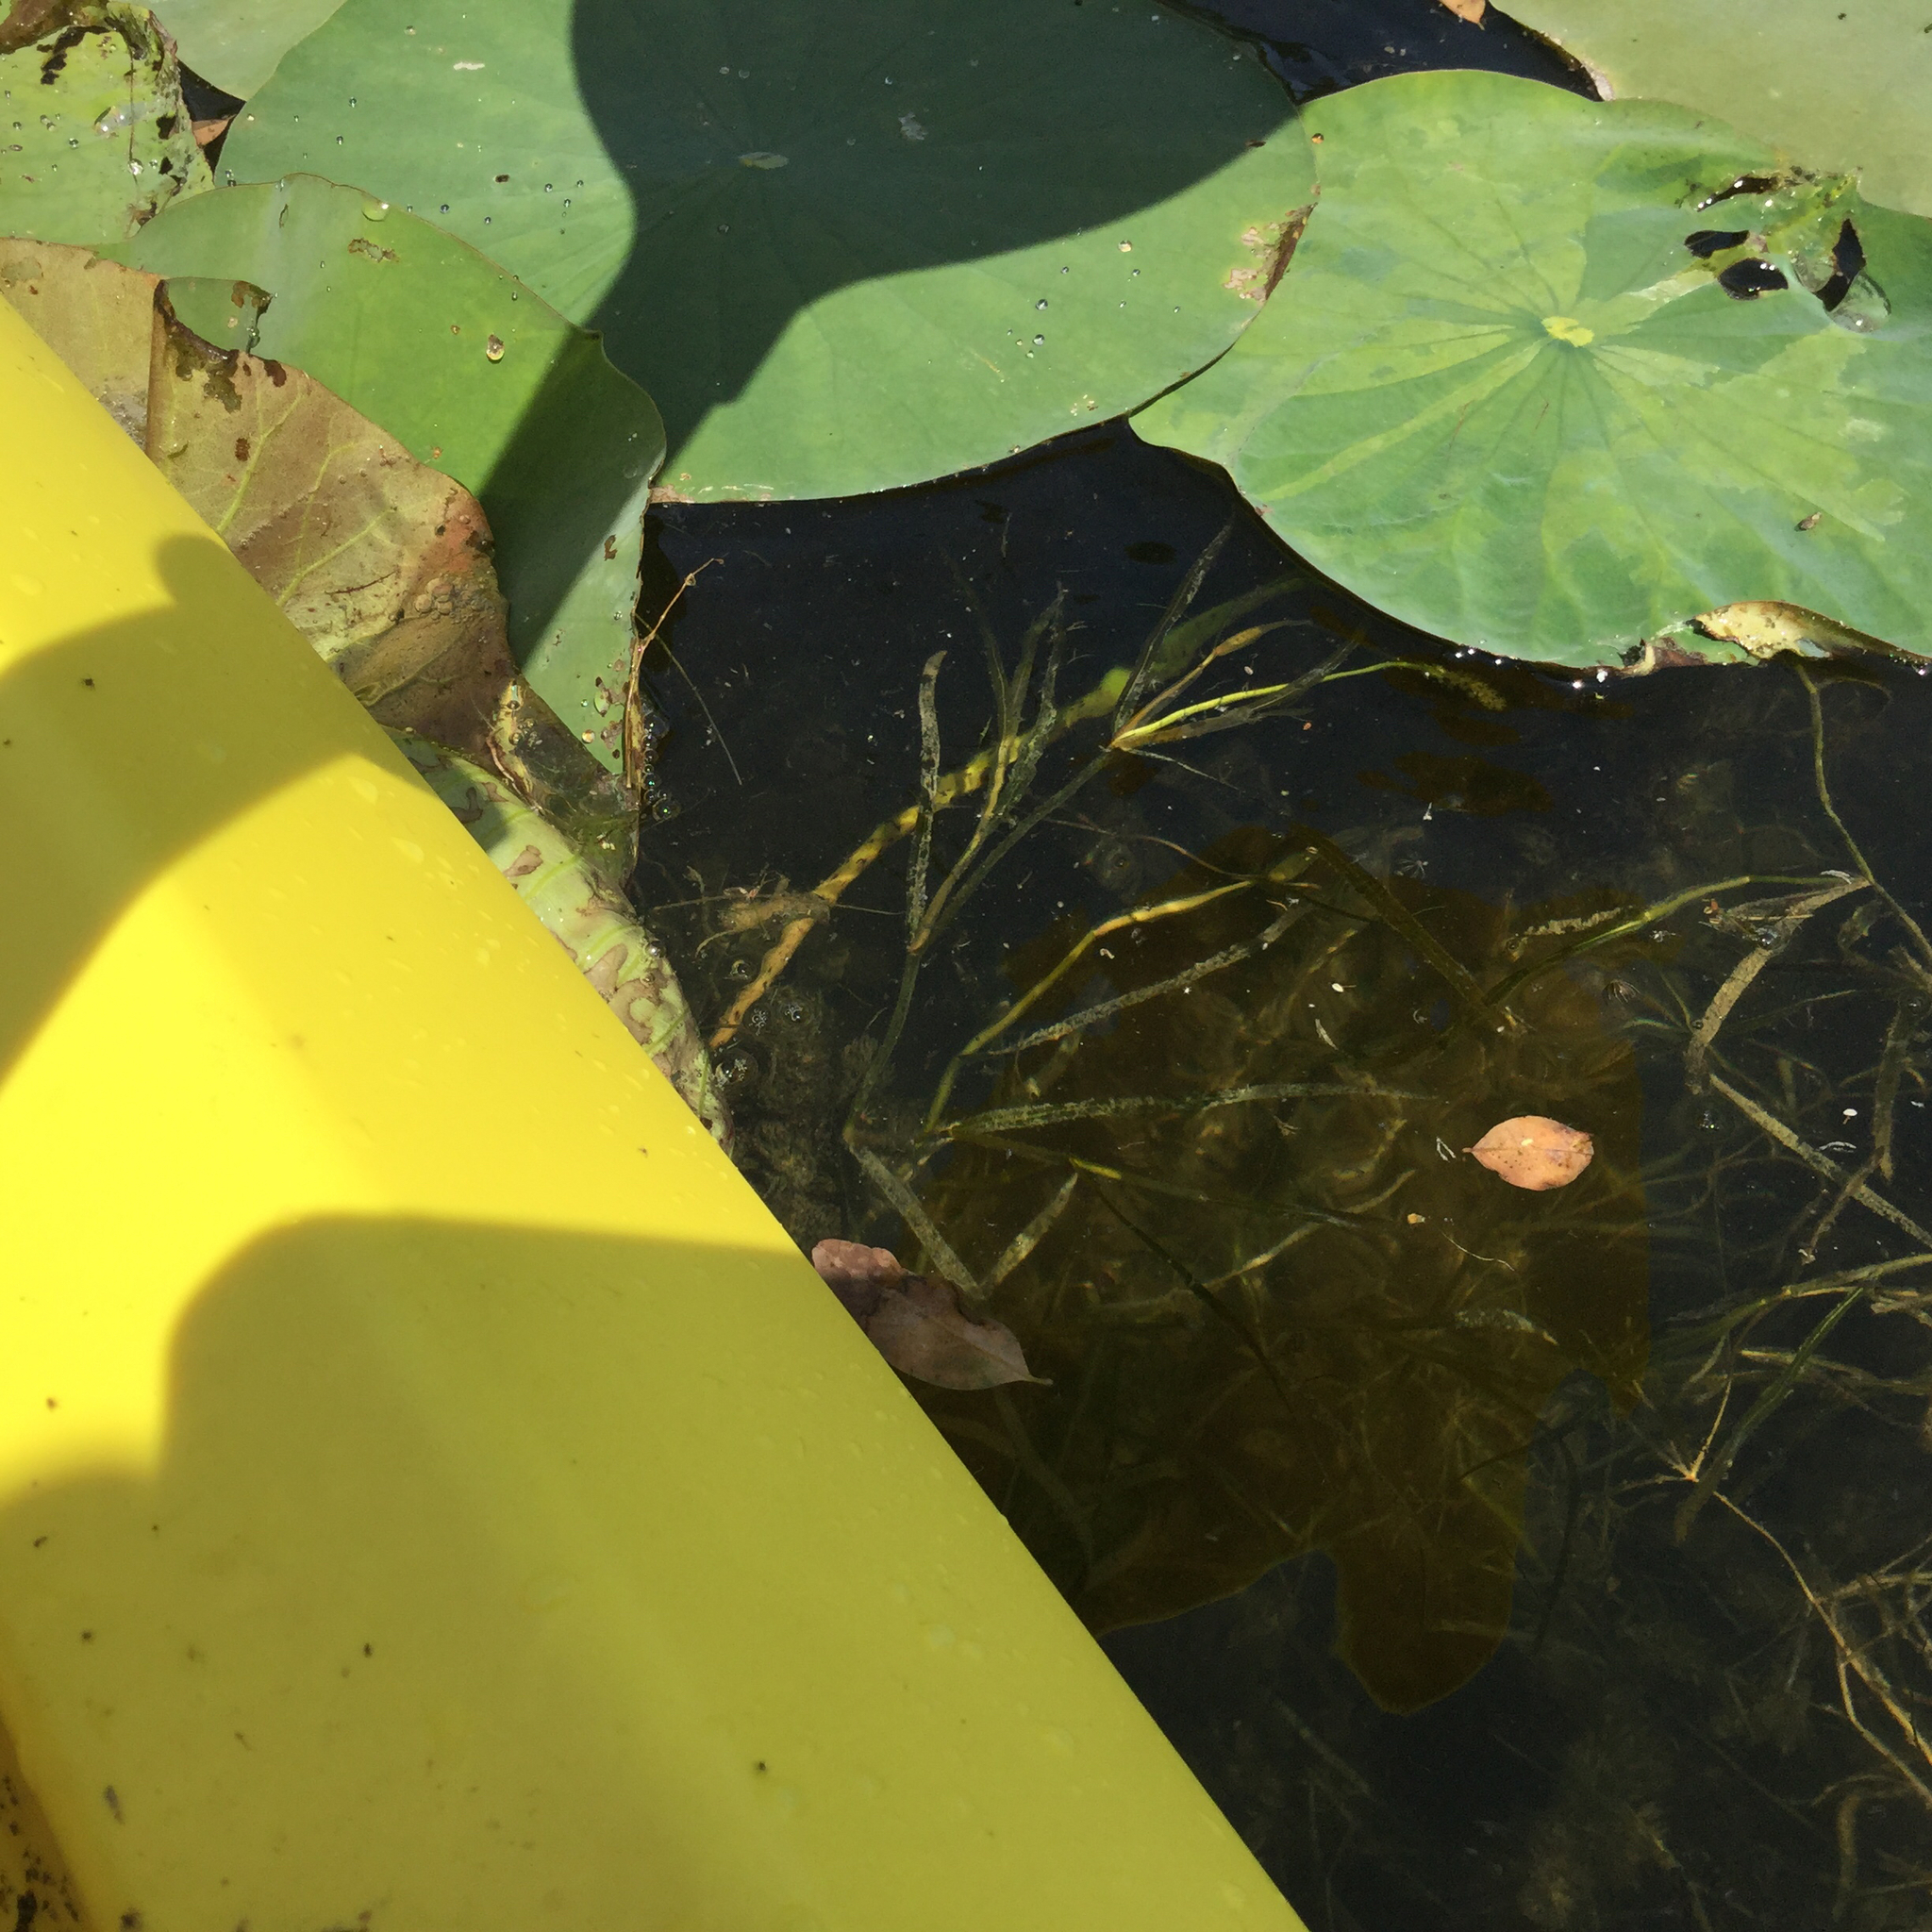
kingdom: Plantae
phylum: Tracheophyta
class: Liliopsida
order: Alismatales
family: Potamogetonaceae
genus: Potamogeton
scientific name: Potamogeton zosteriformis
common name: Eelgrass pondweed
